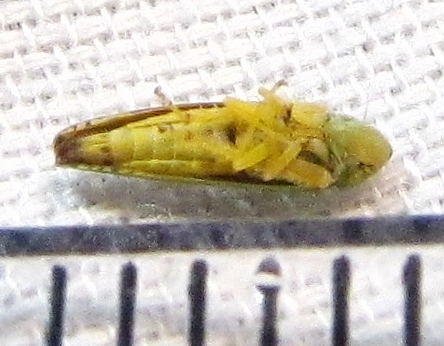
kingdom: Animalia
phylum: Arthropoda
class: Insecta
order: Hemiptera
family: Cicadellidae
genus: Graphocephala
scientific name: Graphocephala versuta
